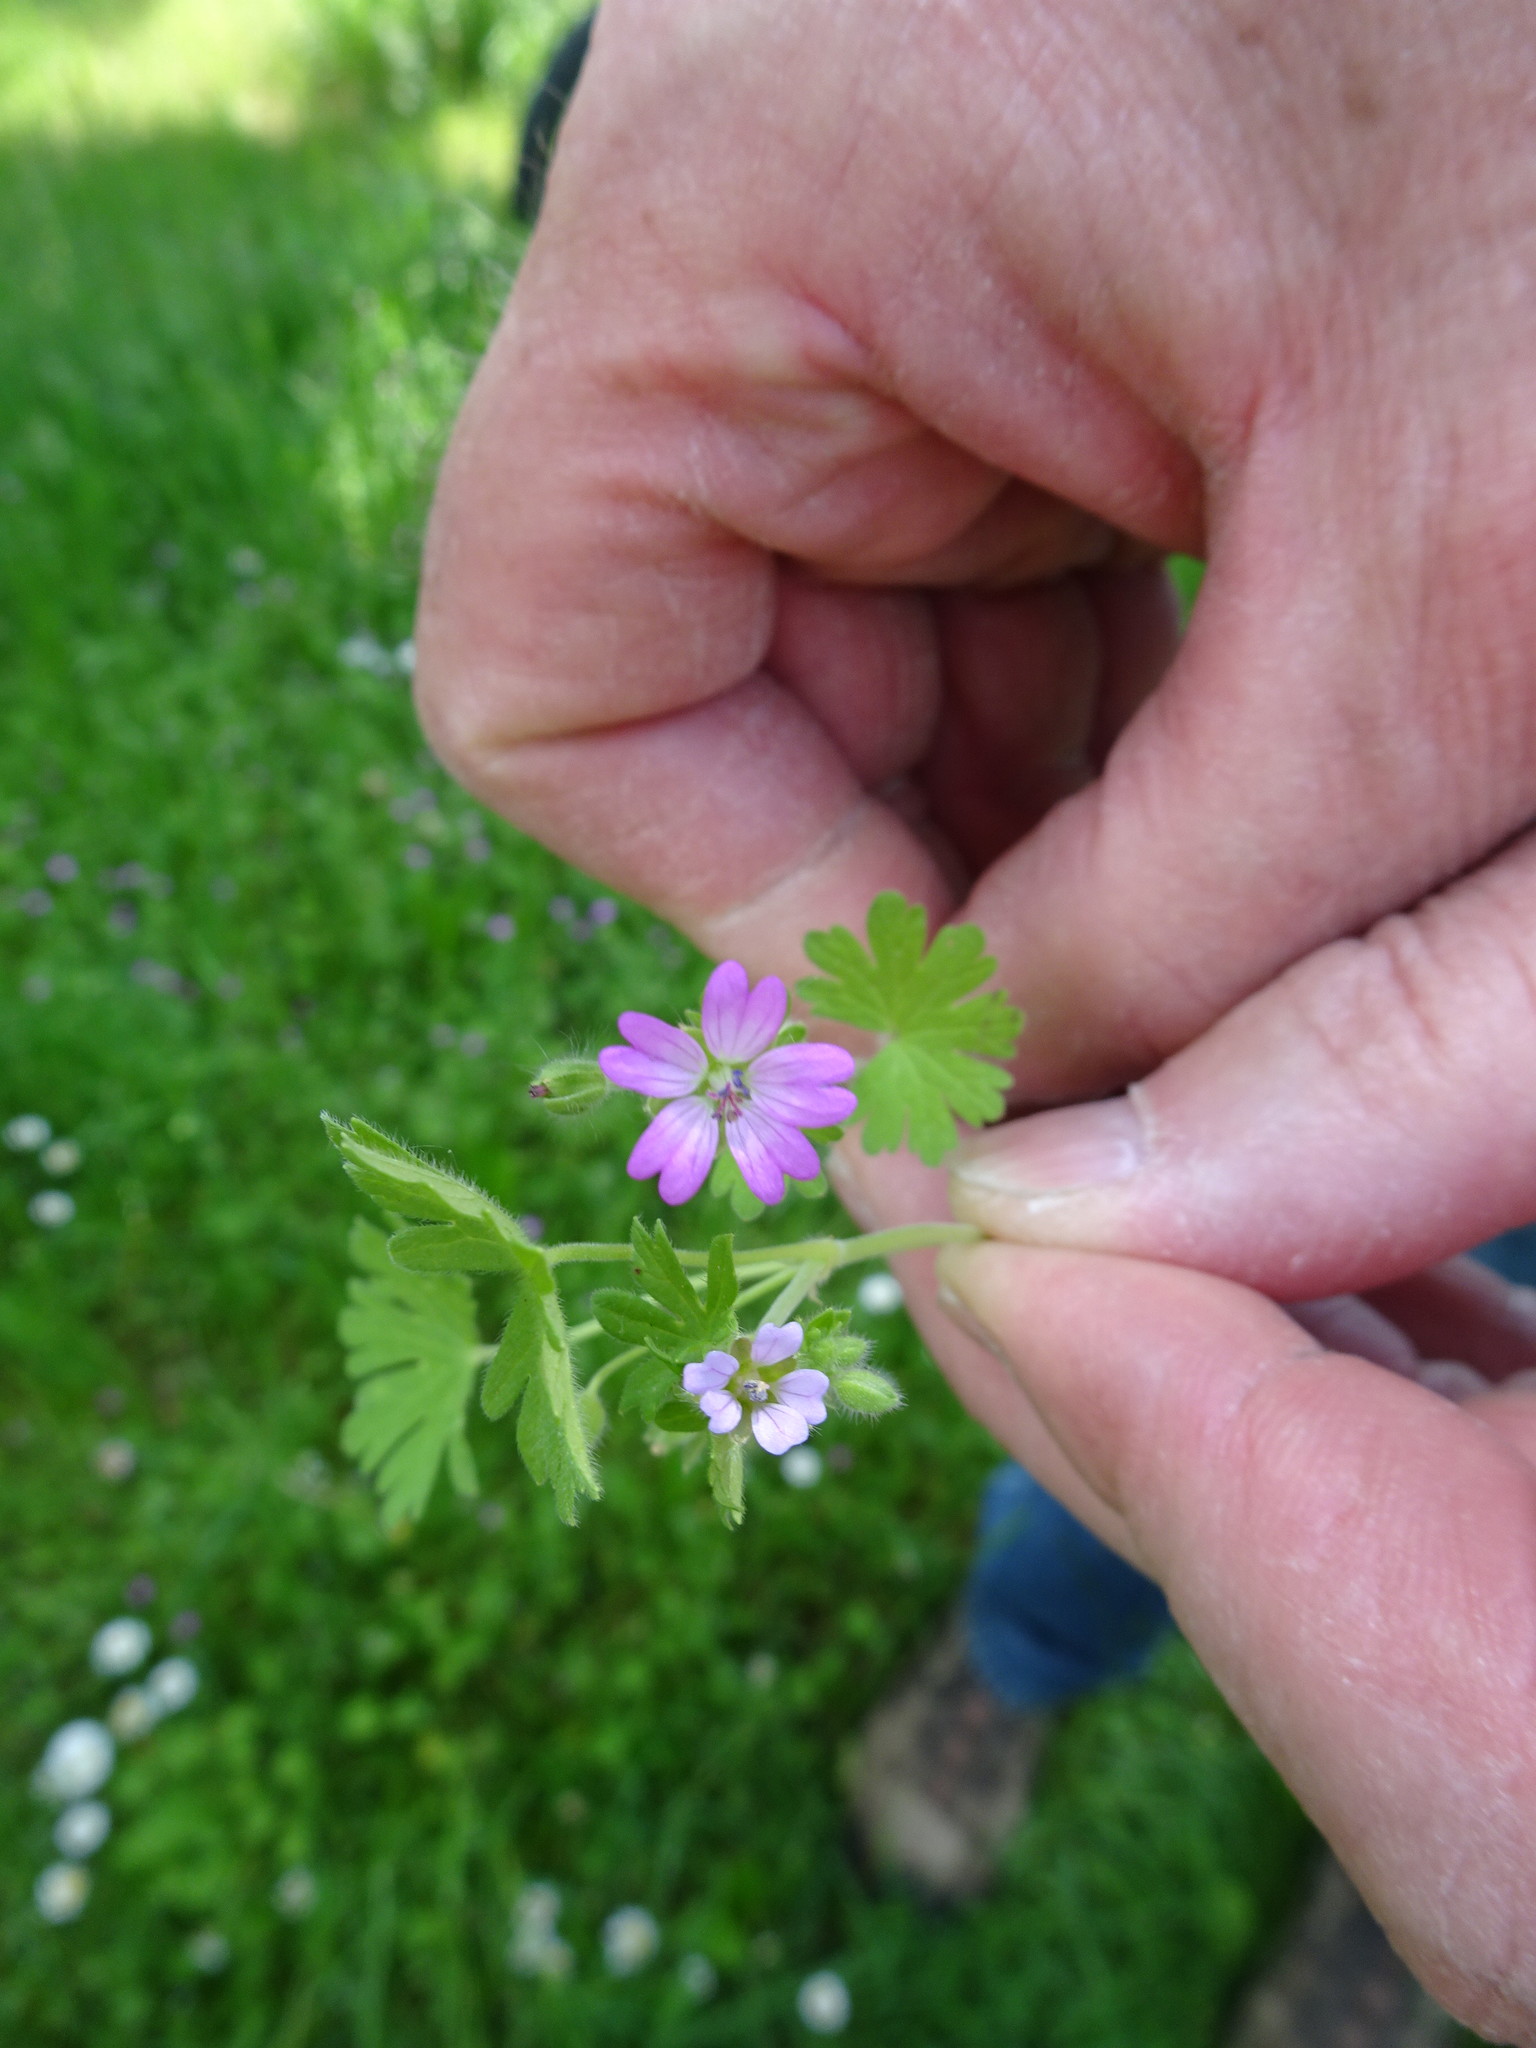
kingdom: Plantae
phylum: Tracheophyta
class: Magnoliopsida
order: Geraniales
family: Geraniaceae
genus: Geranium
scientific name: Geranium molle
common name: Dove's-foot crane's-bill
